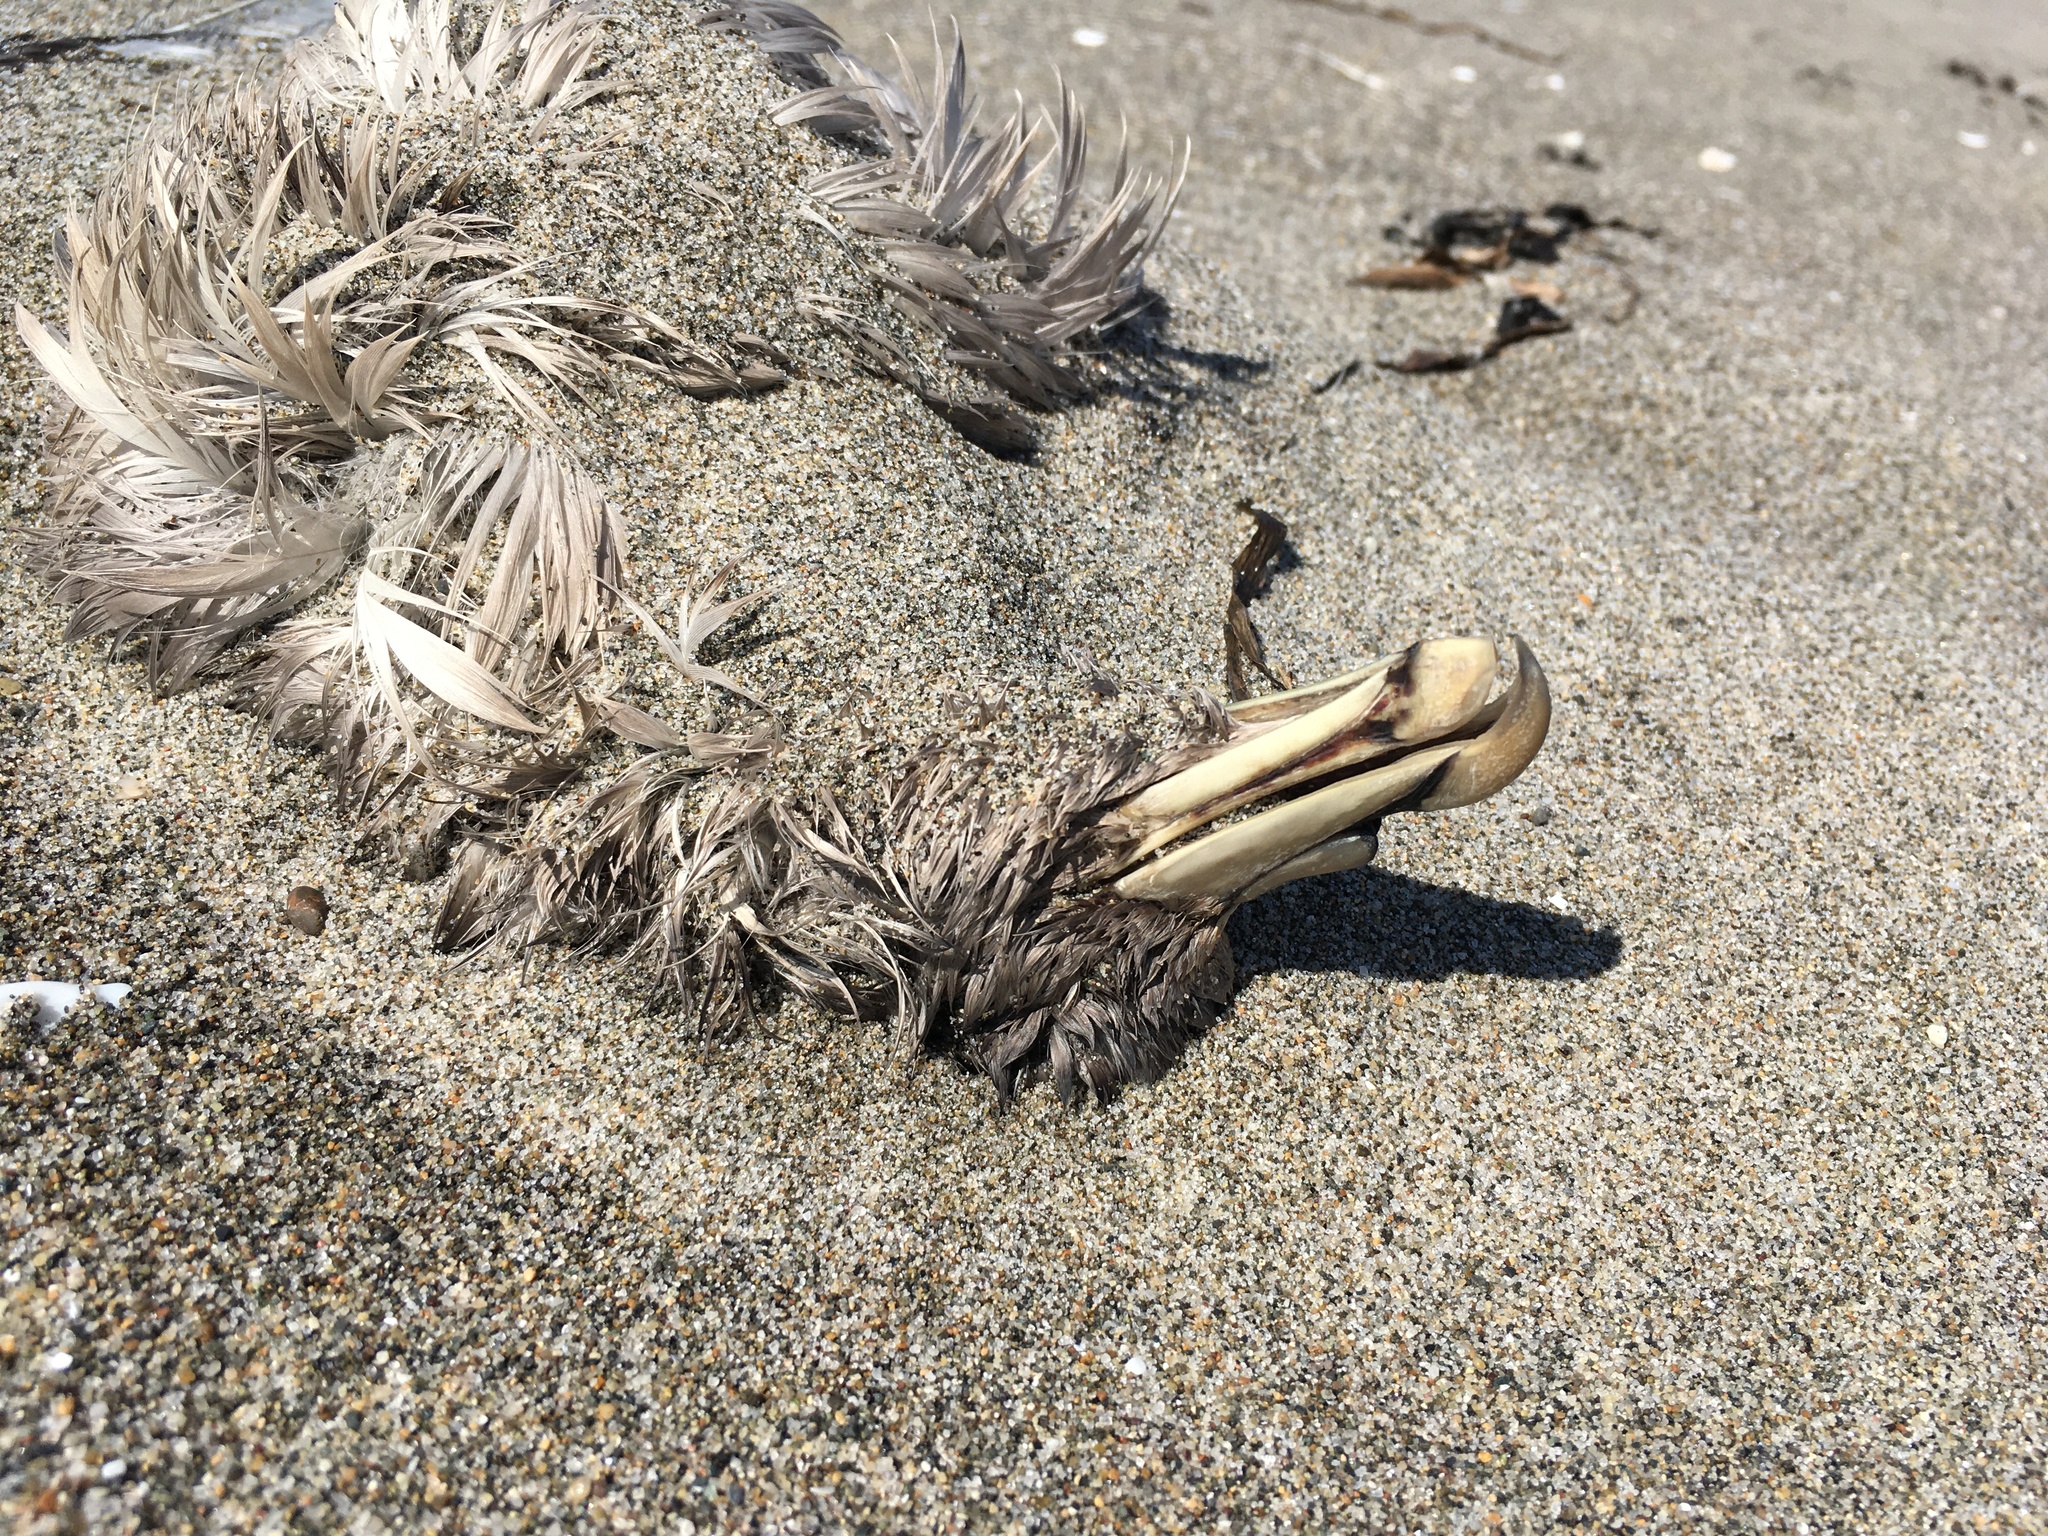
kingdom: Animalia
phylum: Chordata
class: Aves
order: Procellariiformes
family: Procellariidae
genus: Fulmarus
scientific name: Fulmarus glacialis
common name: Northern fulmar
